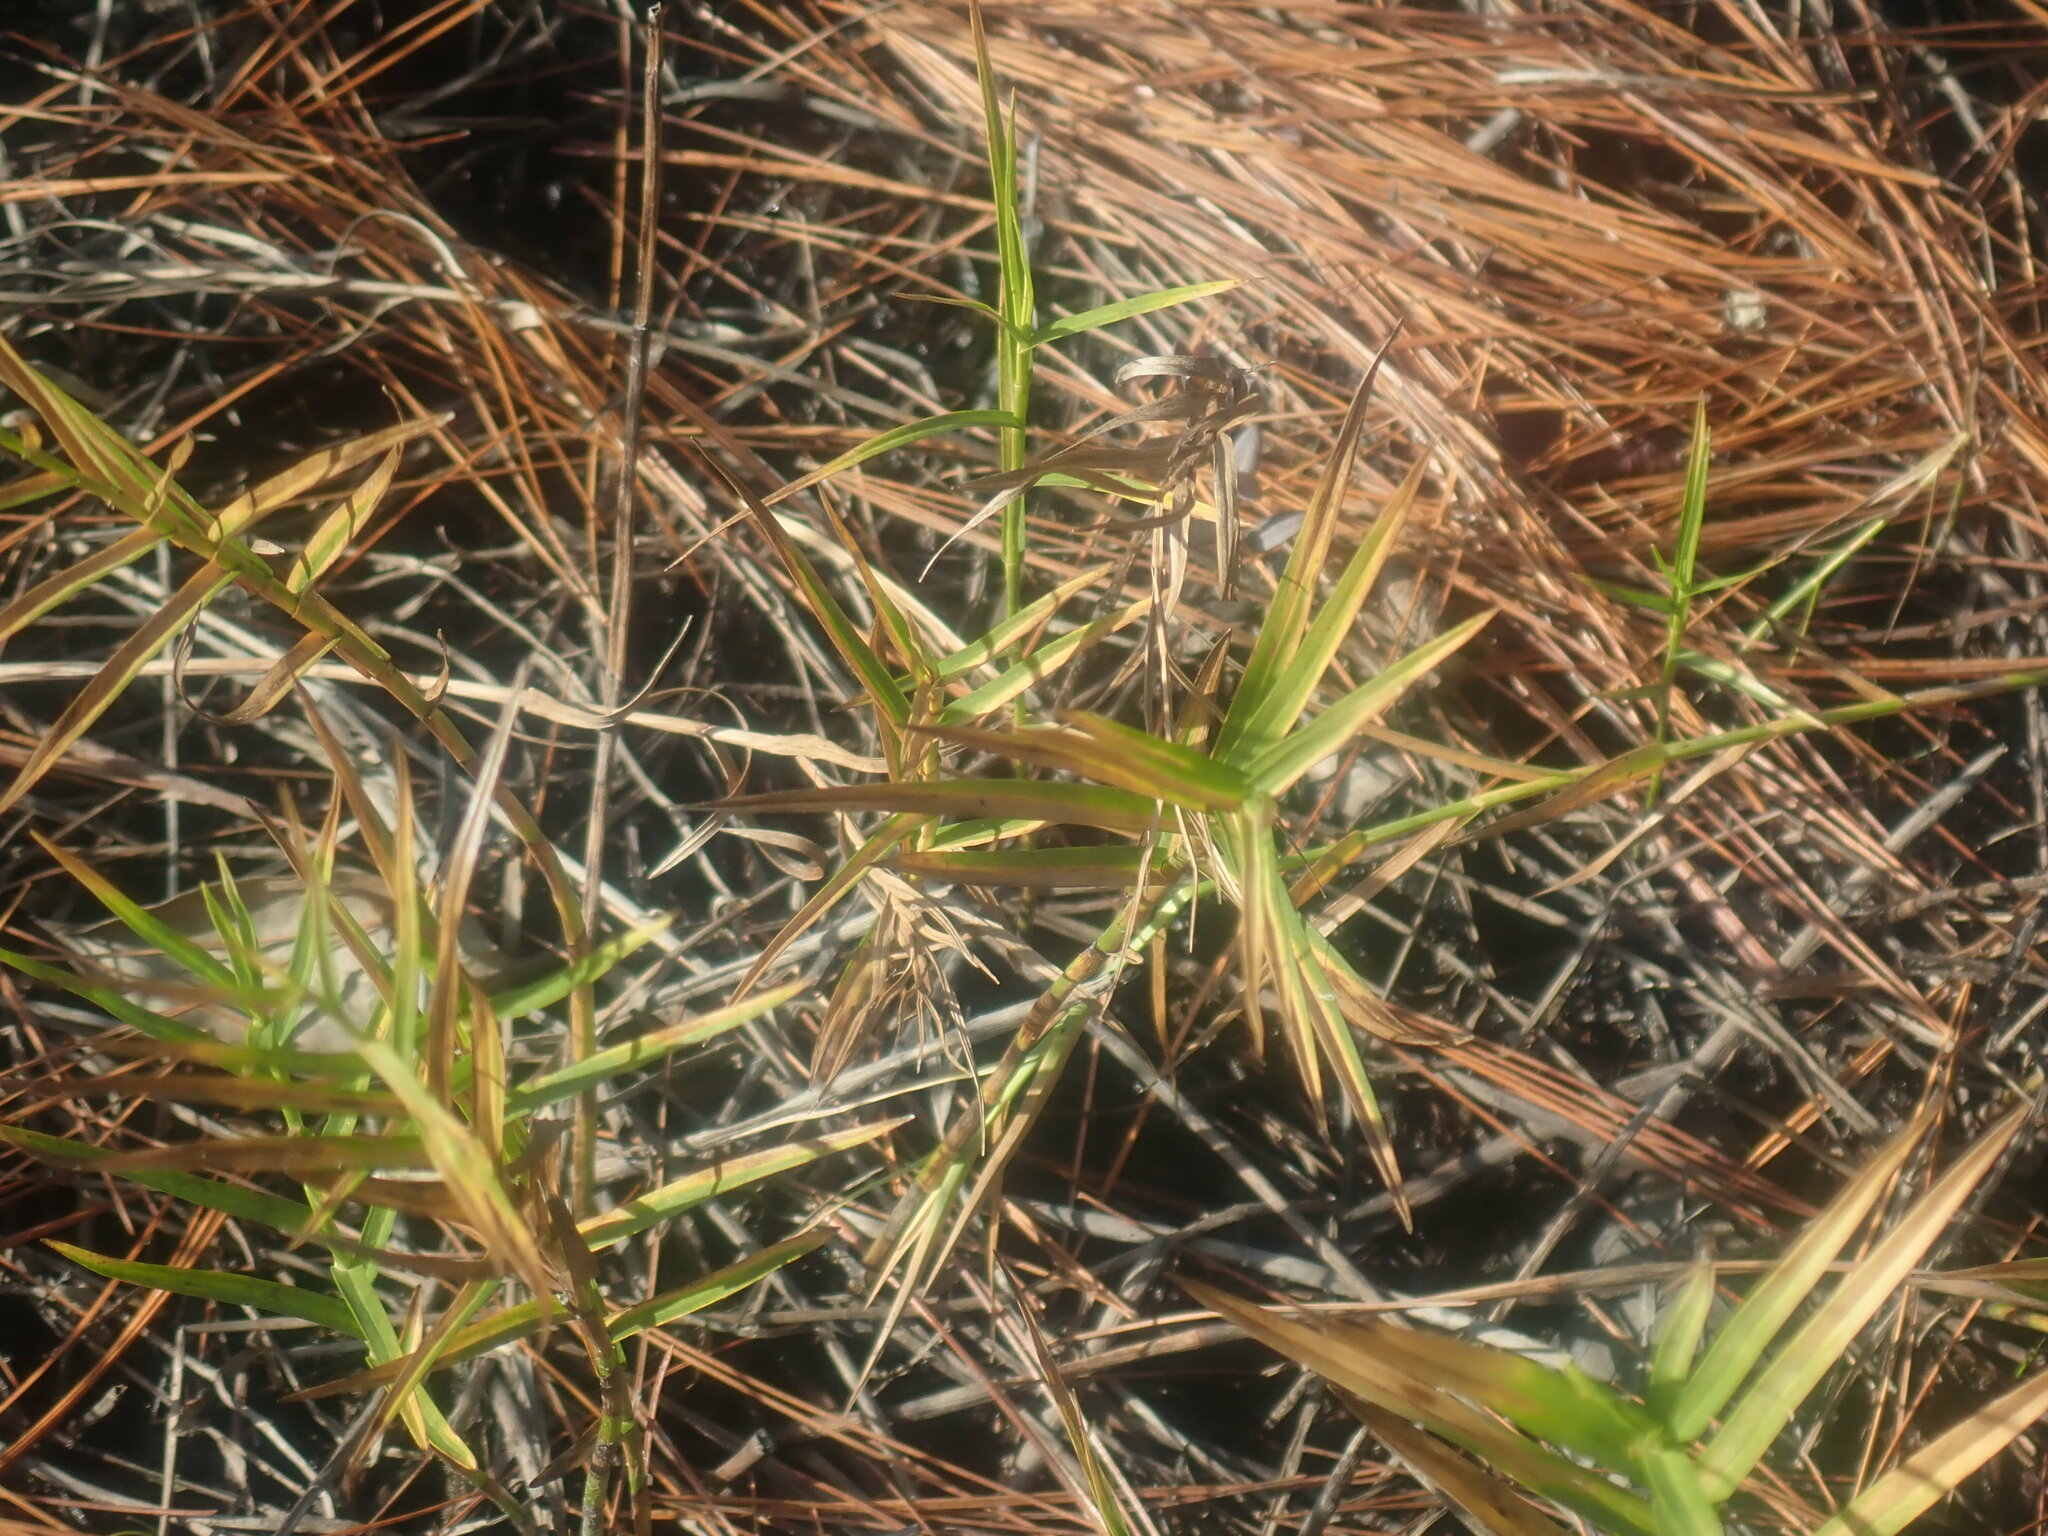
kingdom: Plantae
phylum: Tracheophyta
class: Liliopsida
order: Poales
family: Cyperaceae
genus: Dulichium
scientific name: Dulichium arundinaceum
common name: Three-way sedge
